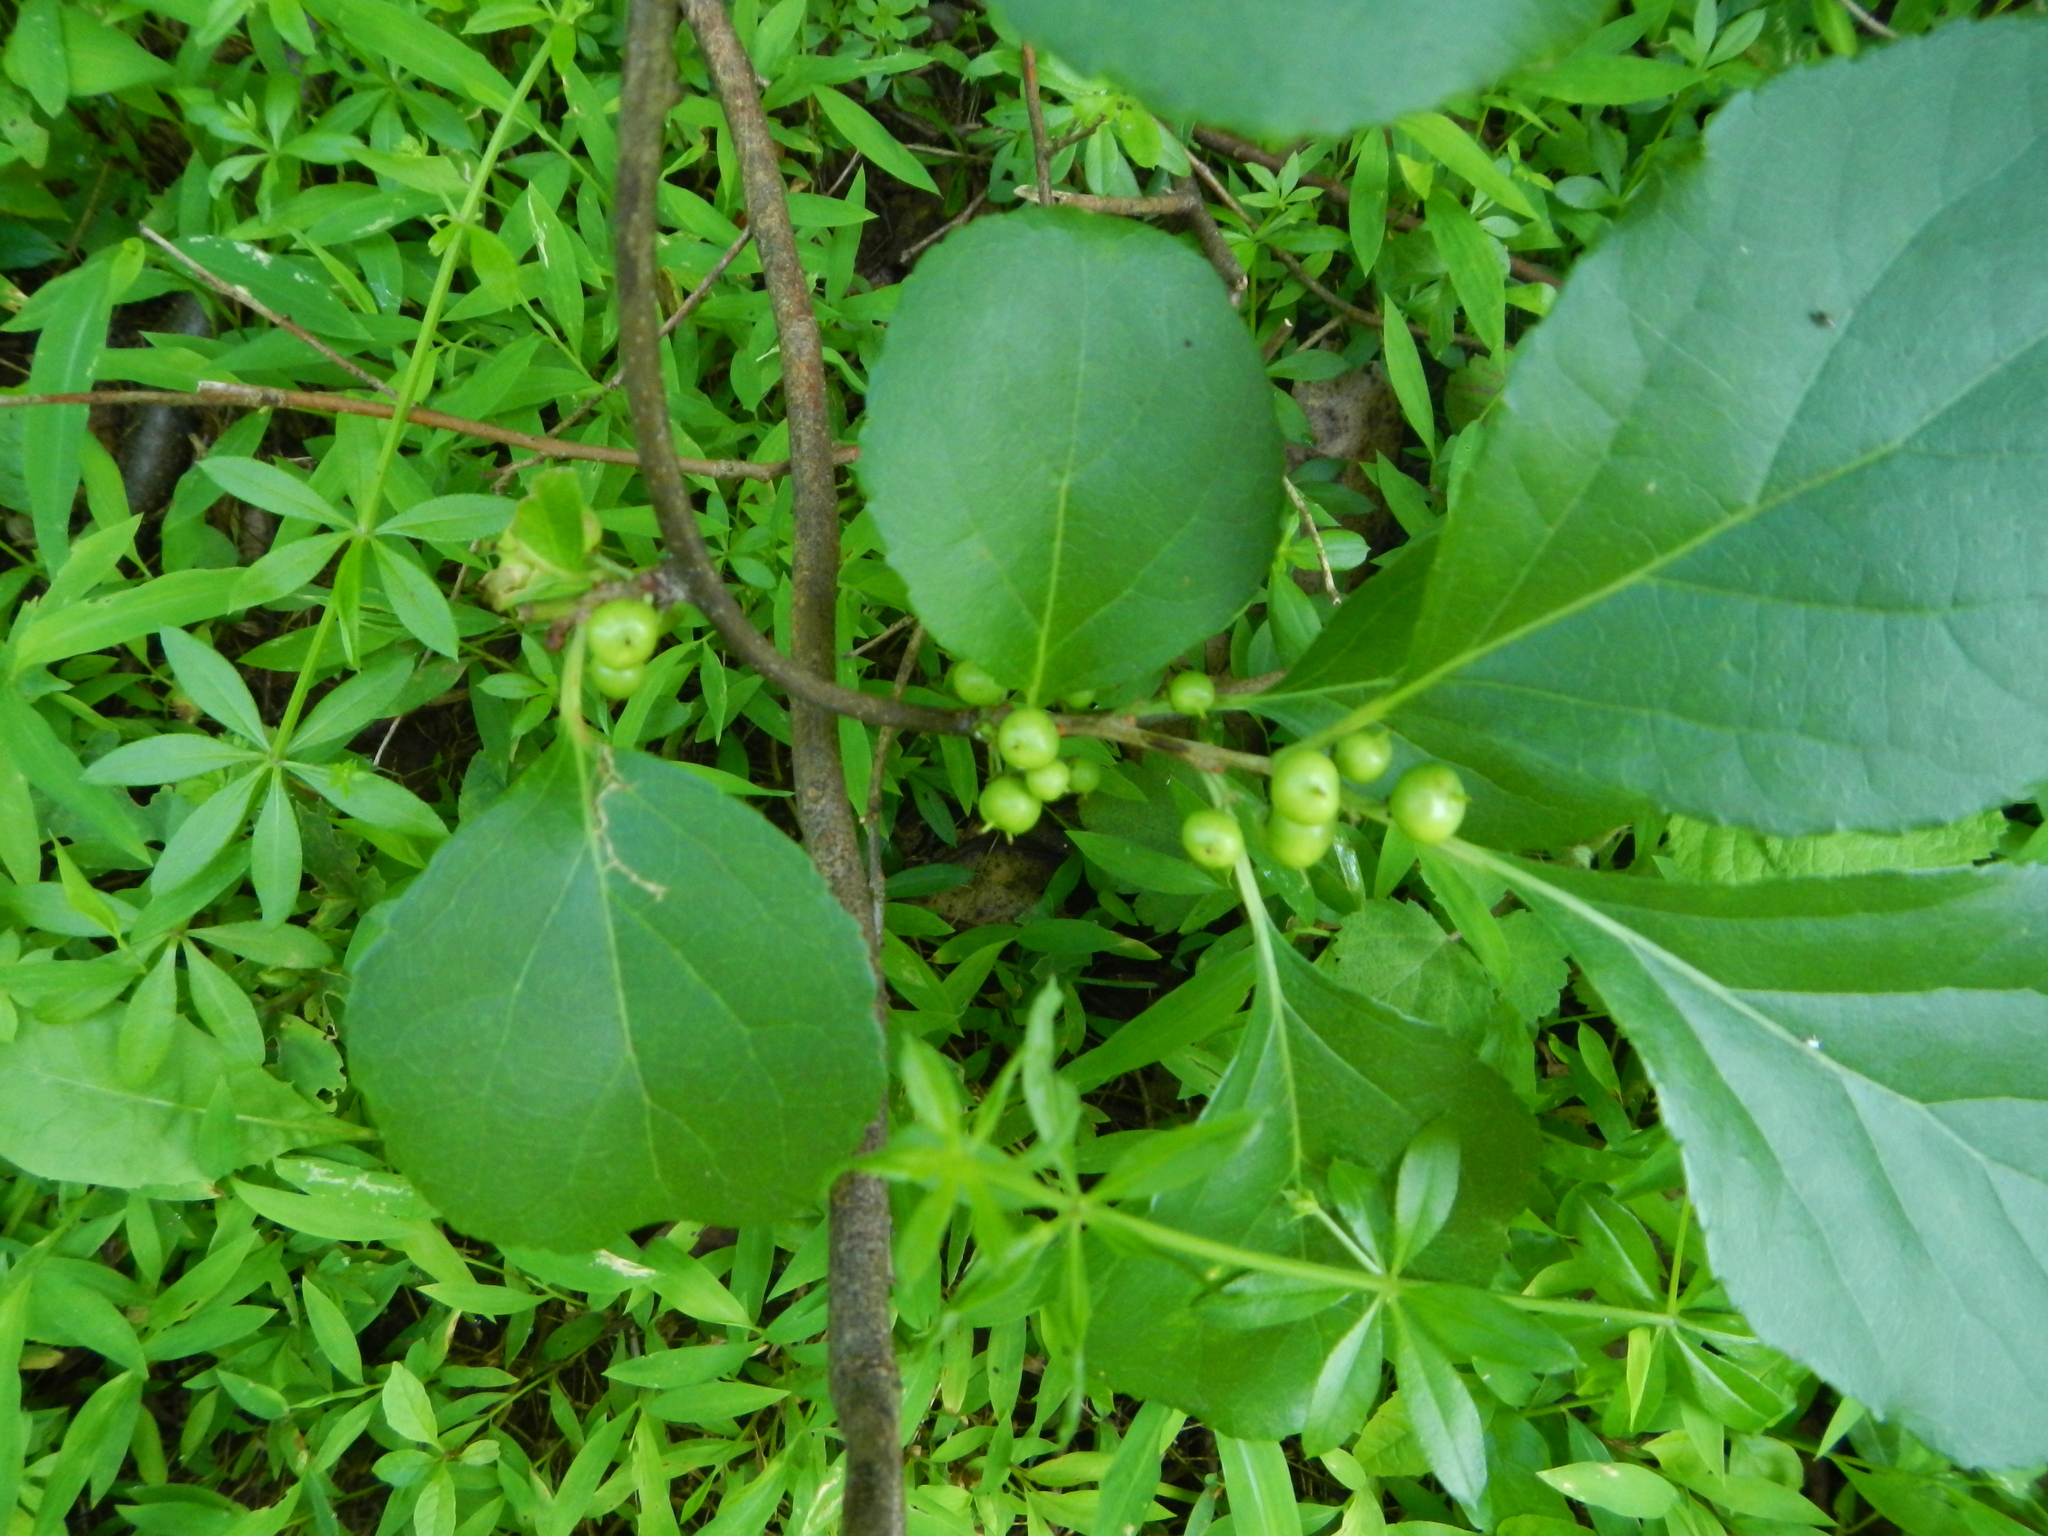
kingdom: Plantae
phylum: Tracheophyta
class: Magnoliopsida
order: Celastrales
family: Celastraceae
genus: Celastrus
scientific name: Celastrus orbiculatus
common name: Oriental bittersweet
